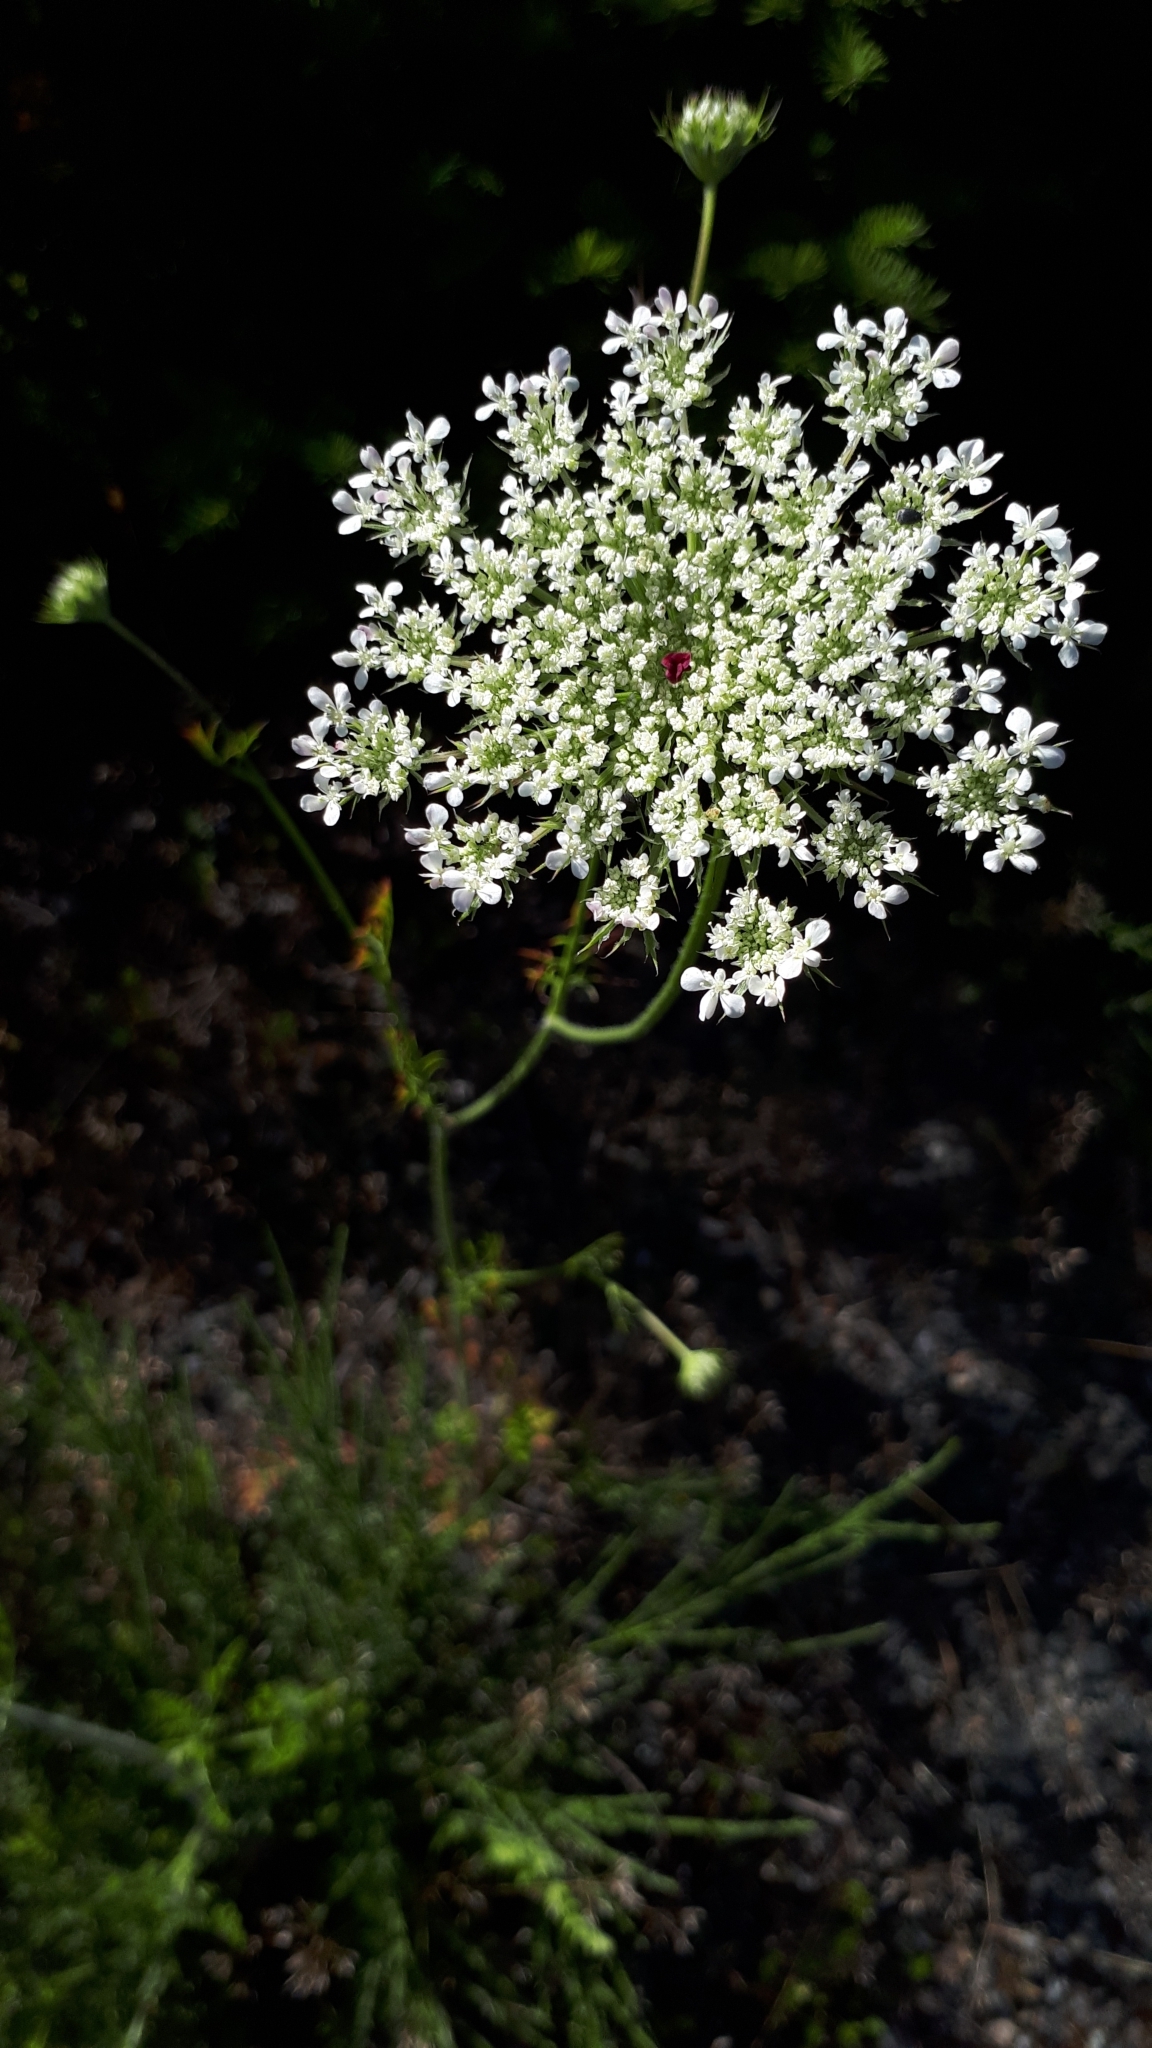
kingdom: Plantae
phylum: Tracheophyta
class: Magnoliopsida
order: Apiales
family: Apiaceae
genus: Daucus
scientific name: Daucus carota
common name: Wild carrot
